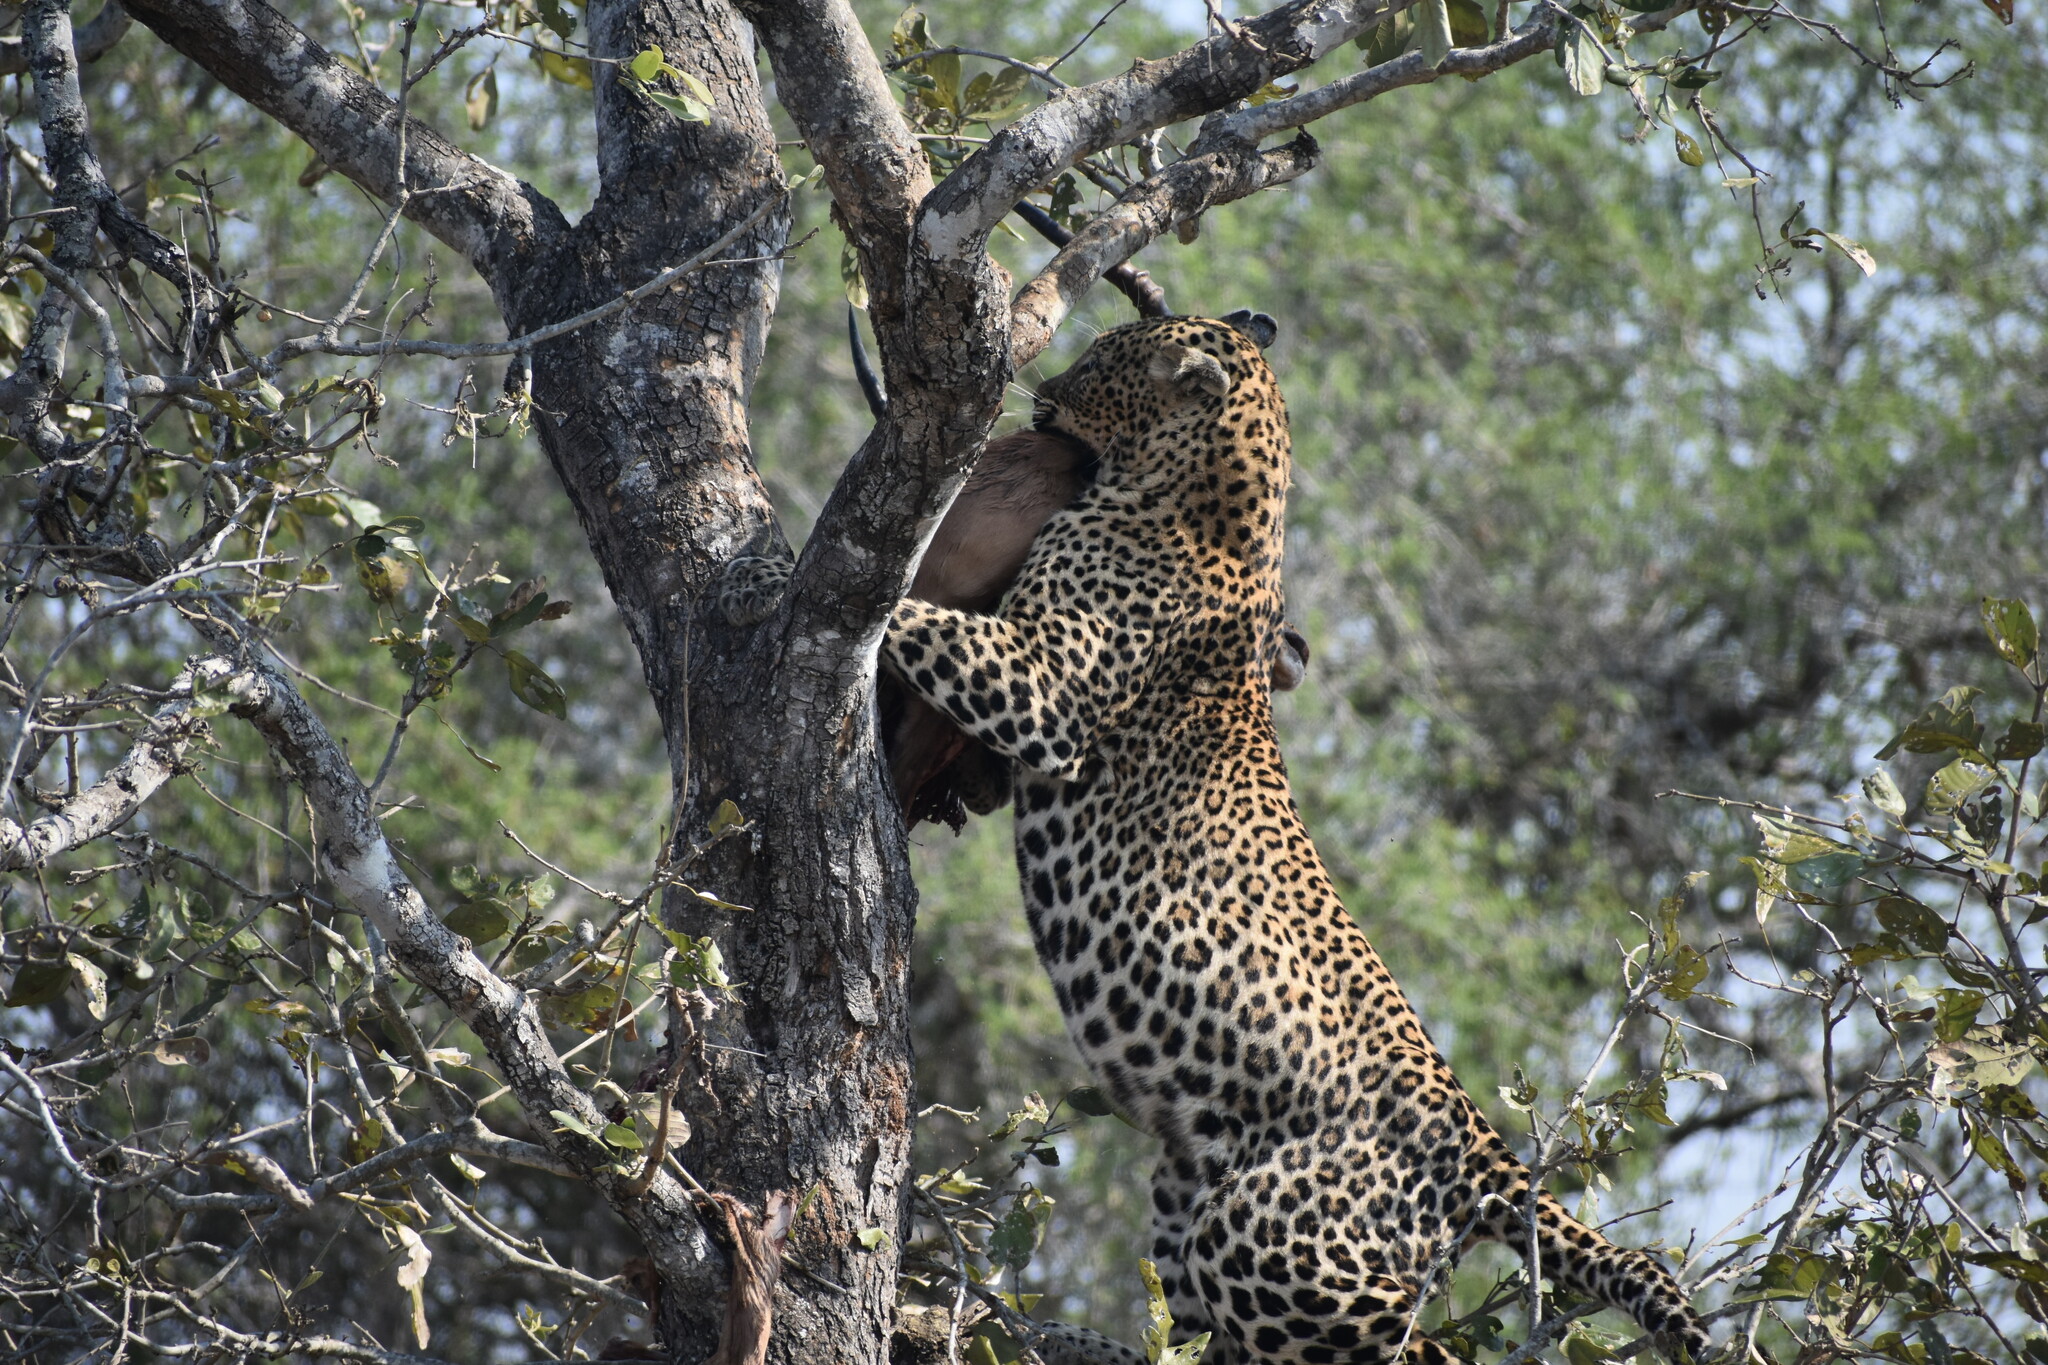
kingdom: Animalia
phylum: Chordata
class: Mammalia
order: Carnivora
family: Felidae
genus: Panthera
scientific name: Panthera pardus
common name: Leopard
